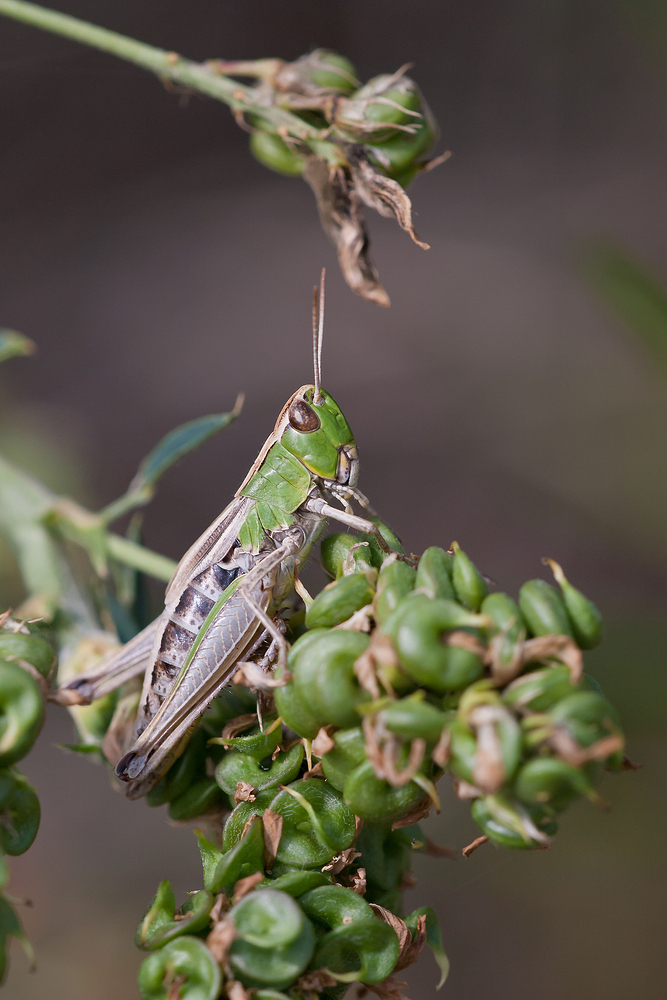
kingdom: Animalia
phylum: Arthropoda
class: Insecta
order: Orthoptera
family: Acrididae
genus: Pseudochorthippus
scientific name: Pseudochorthippus parallelus
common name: Meadow grasshopper
